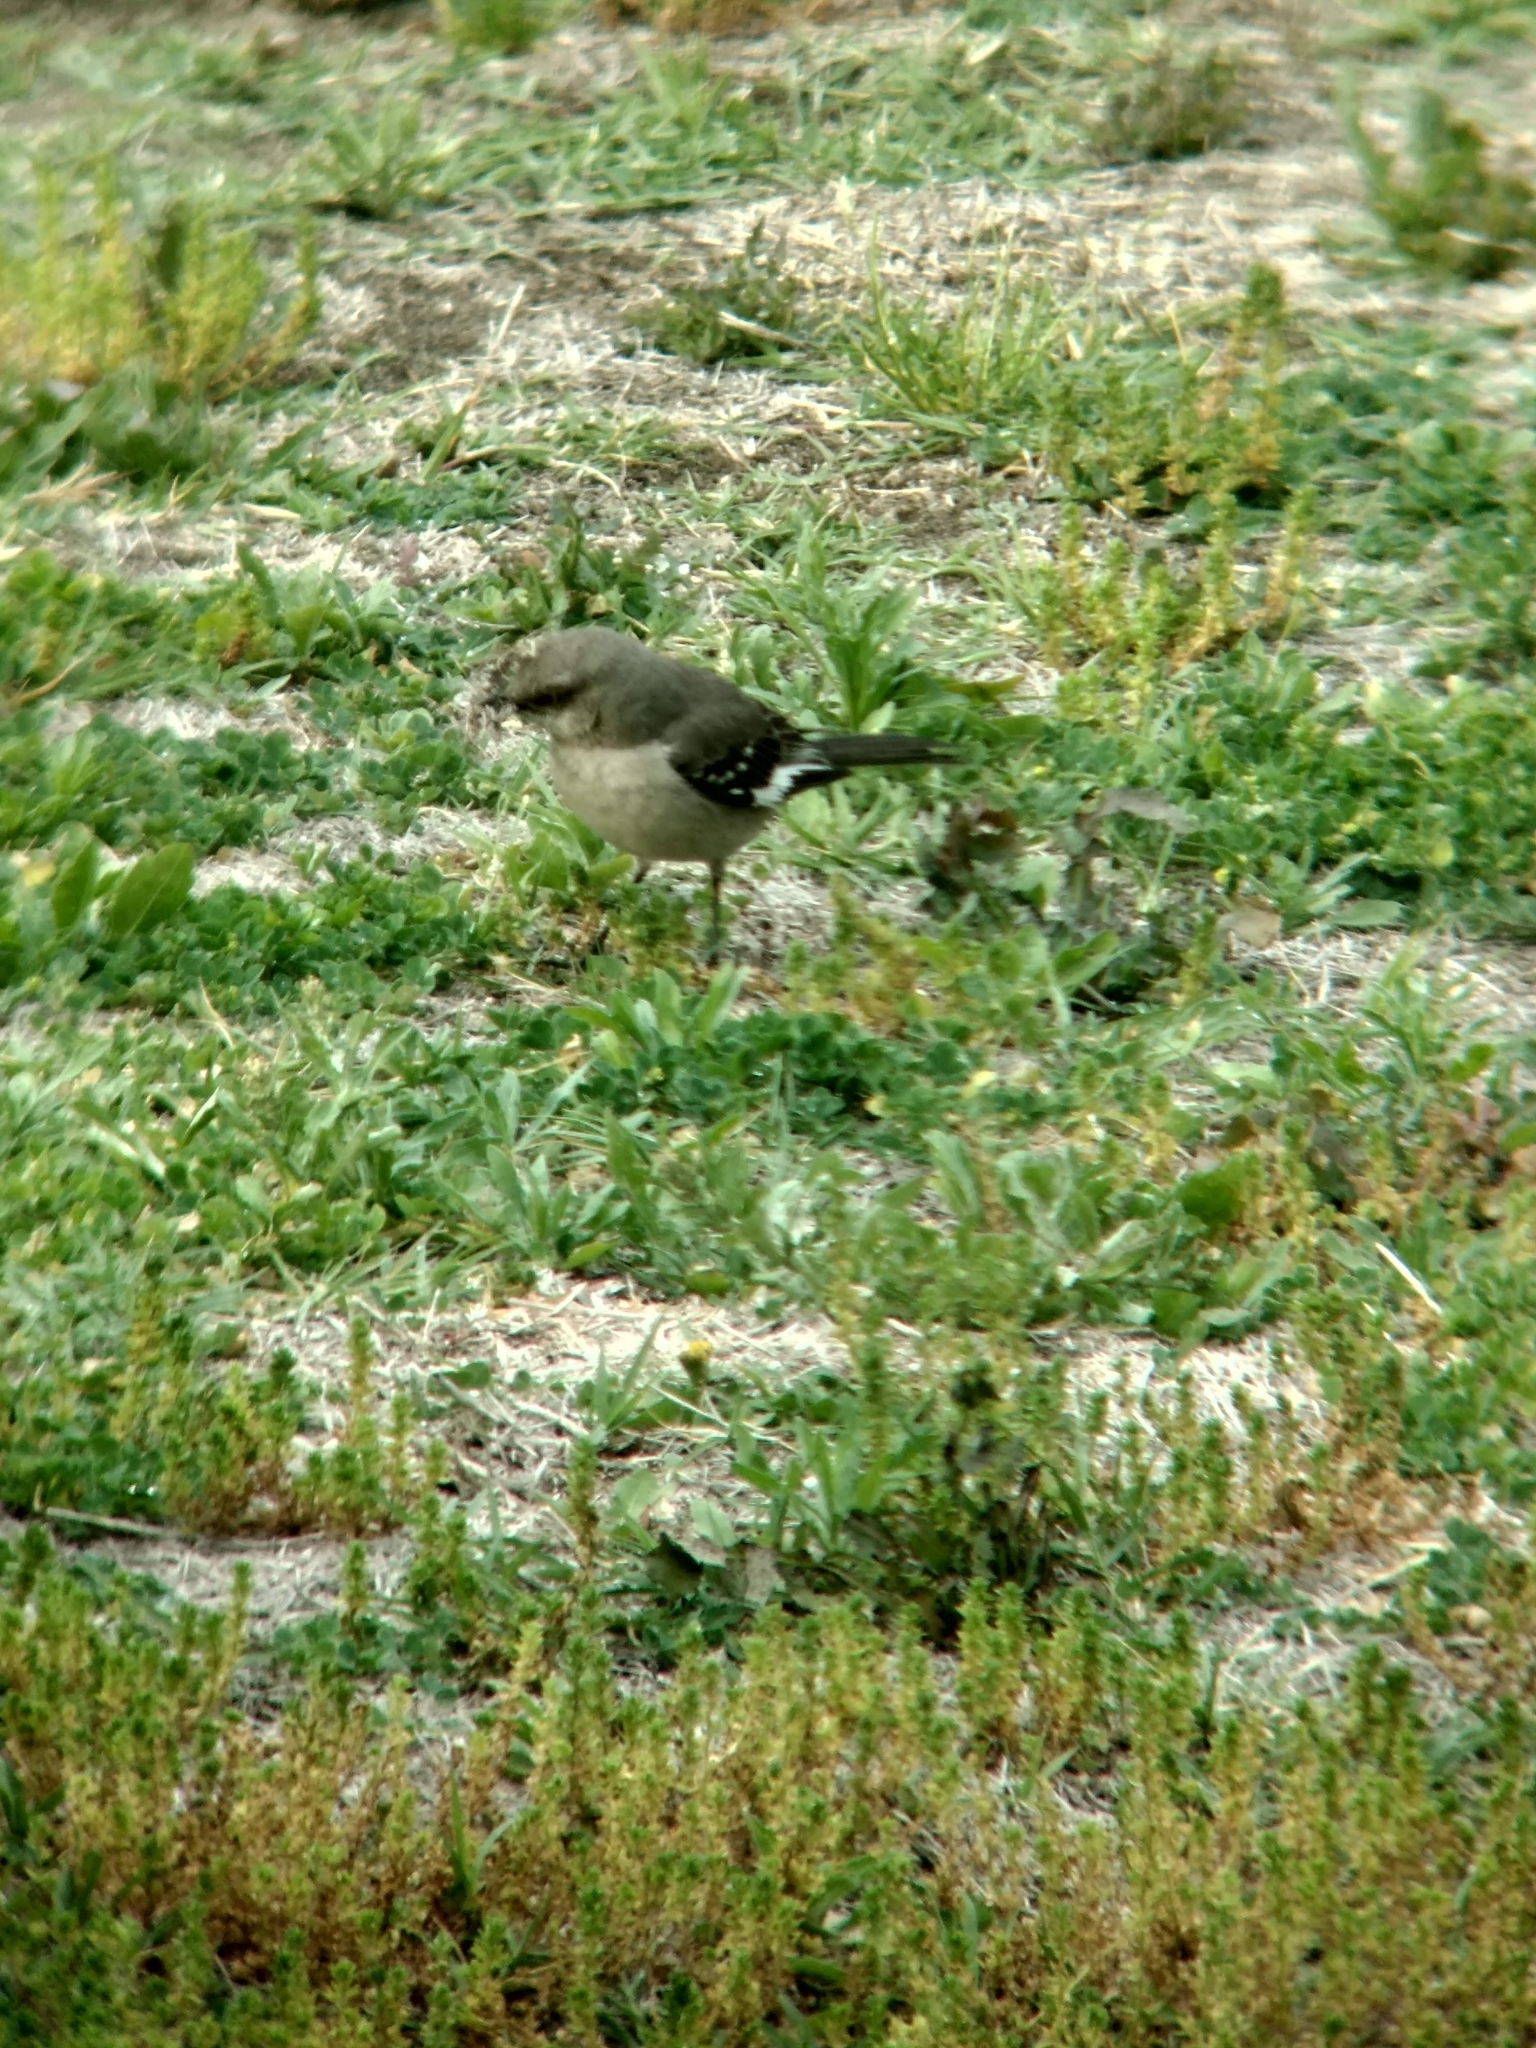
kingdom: Animalia
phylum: Chordata
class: Aves
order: Passeriformes
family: Mimidae
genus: Mimus
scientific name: Mimus polyglottos
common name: Northern mockingbird
